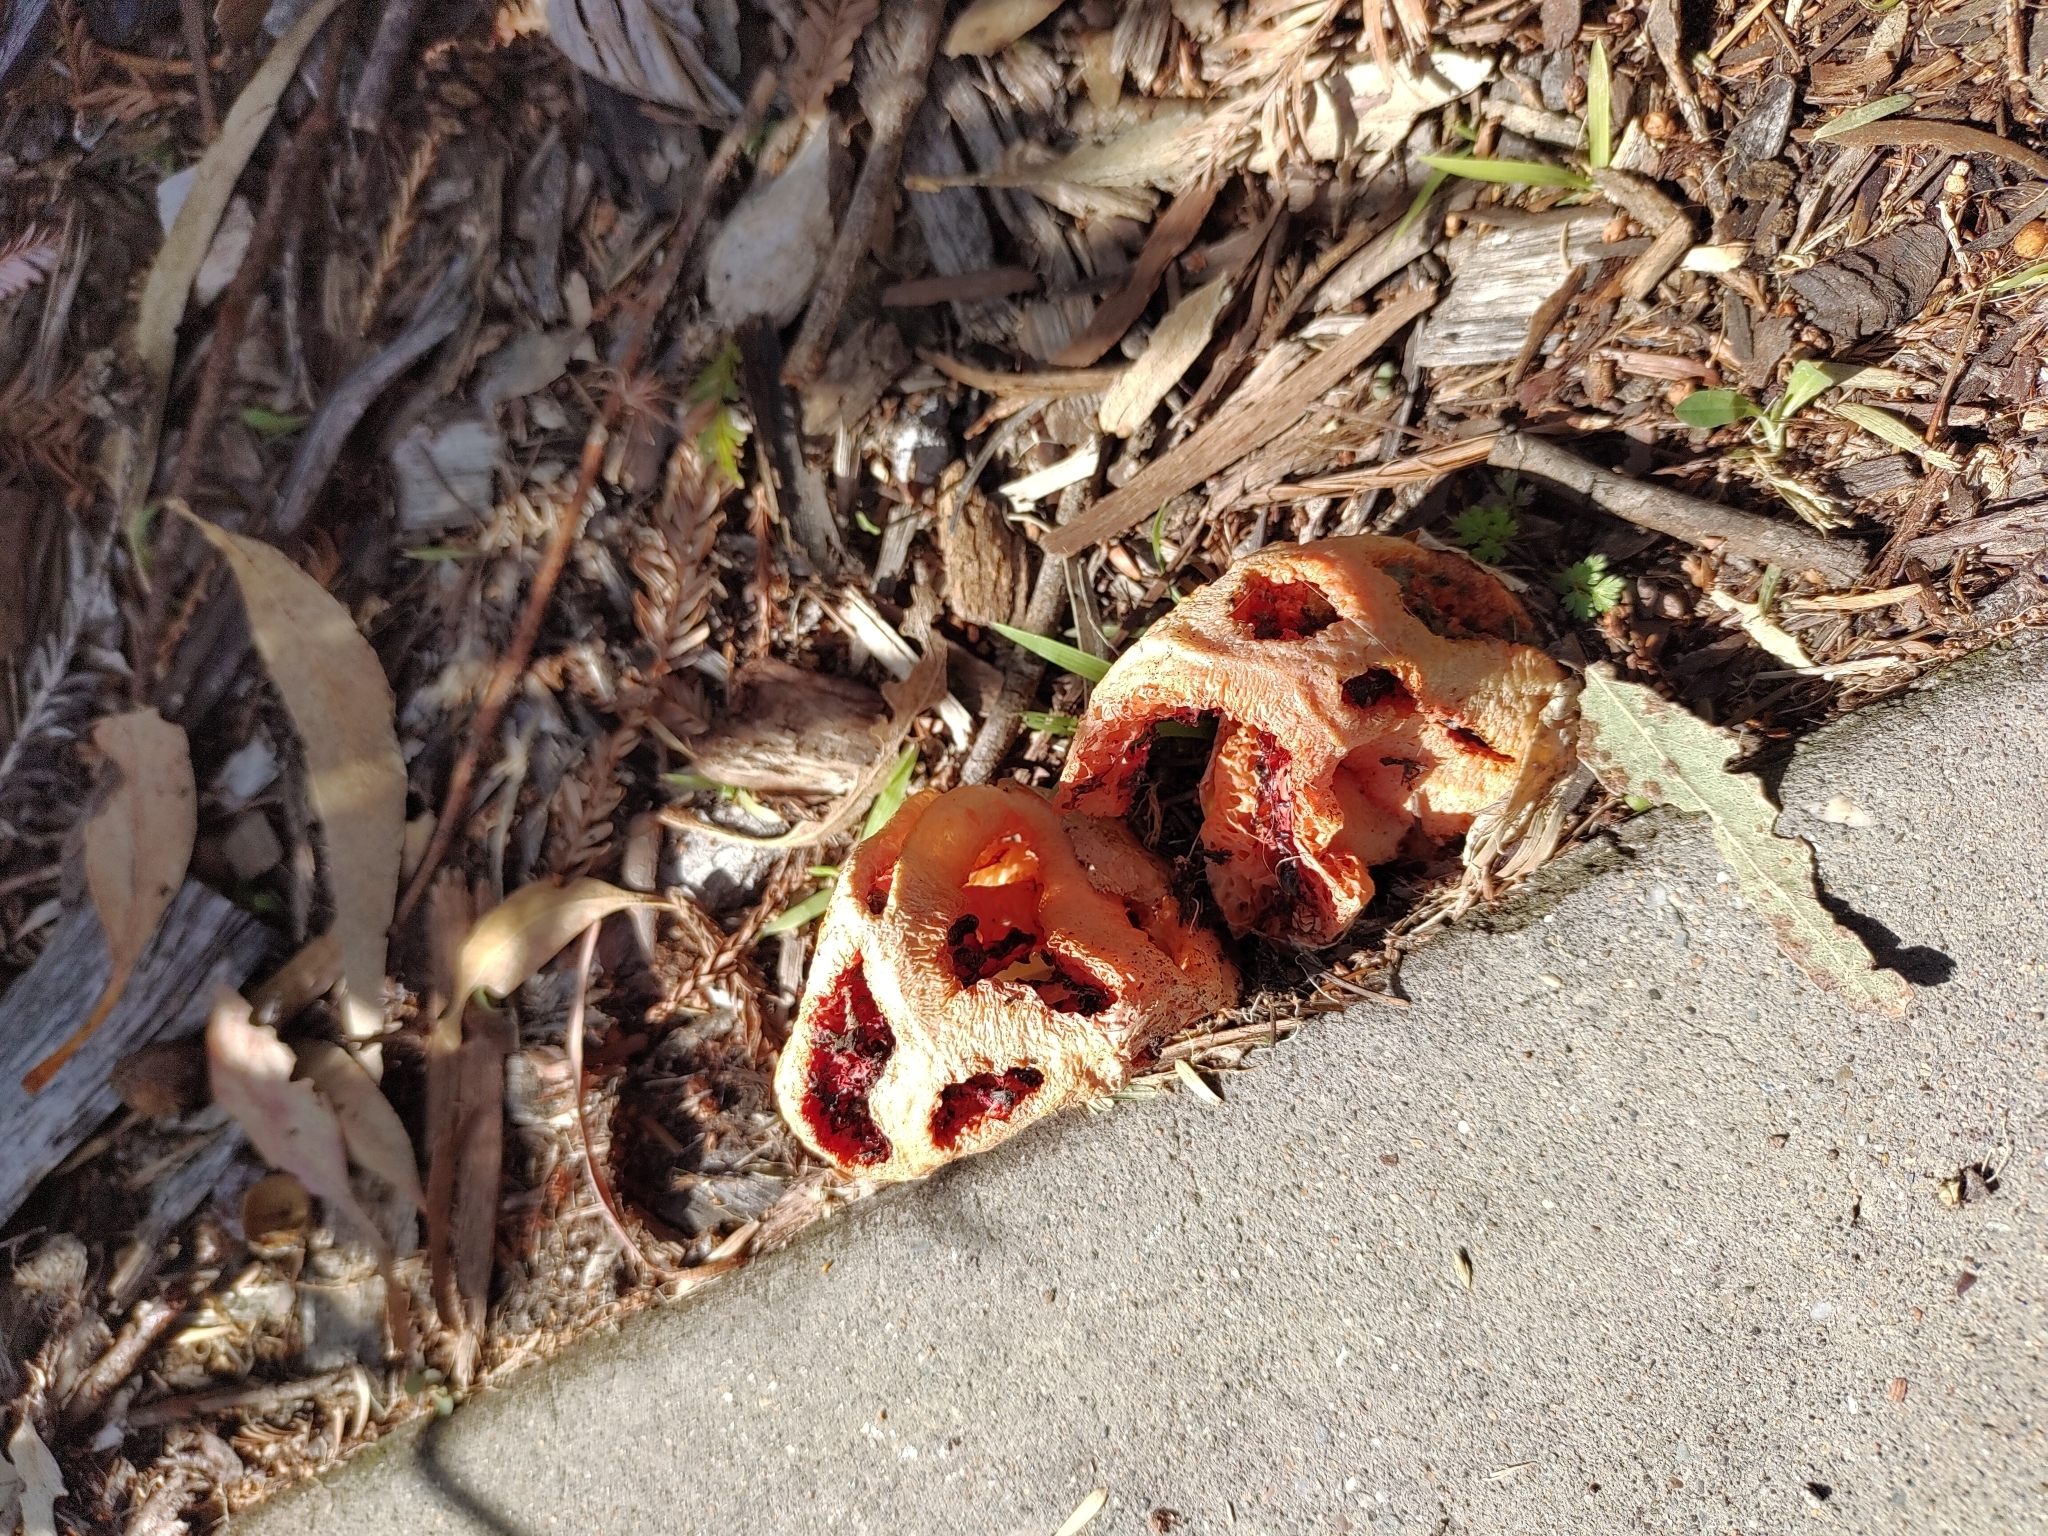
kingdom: Fungi
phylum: Basidiomycota
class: Agaricomycetes
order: Phallales
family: Phallaceae
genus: Clathrus
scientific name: Clathrus ruber
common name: Red cage
